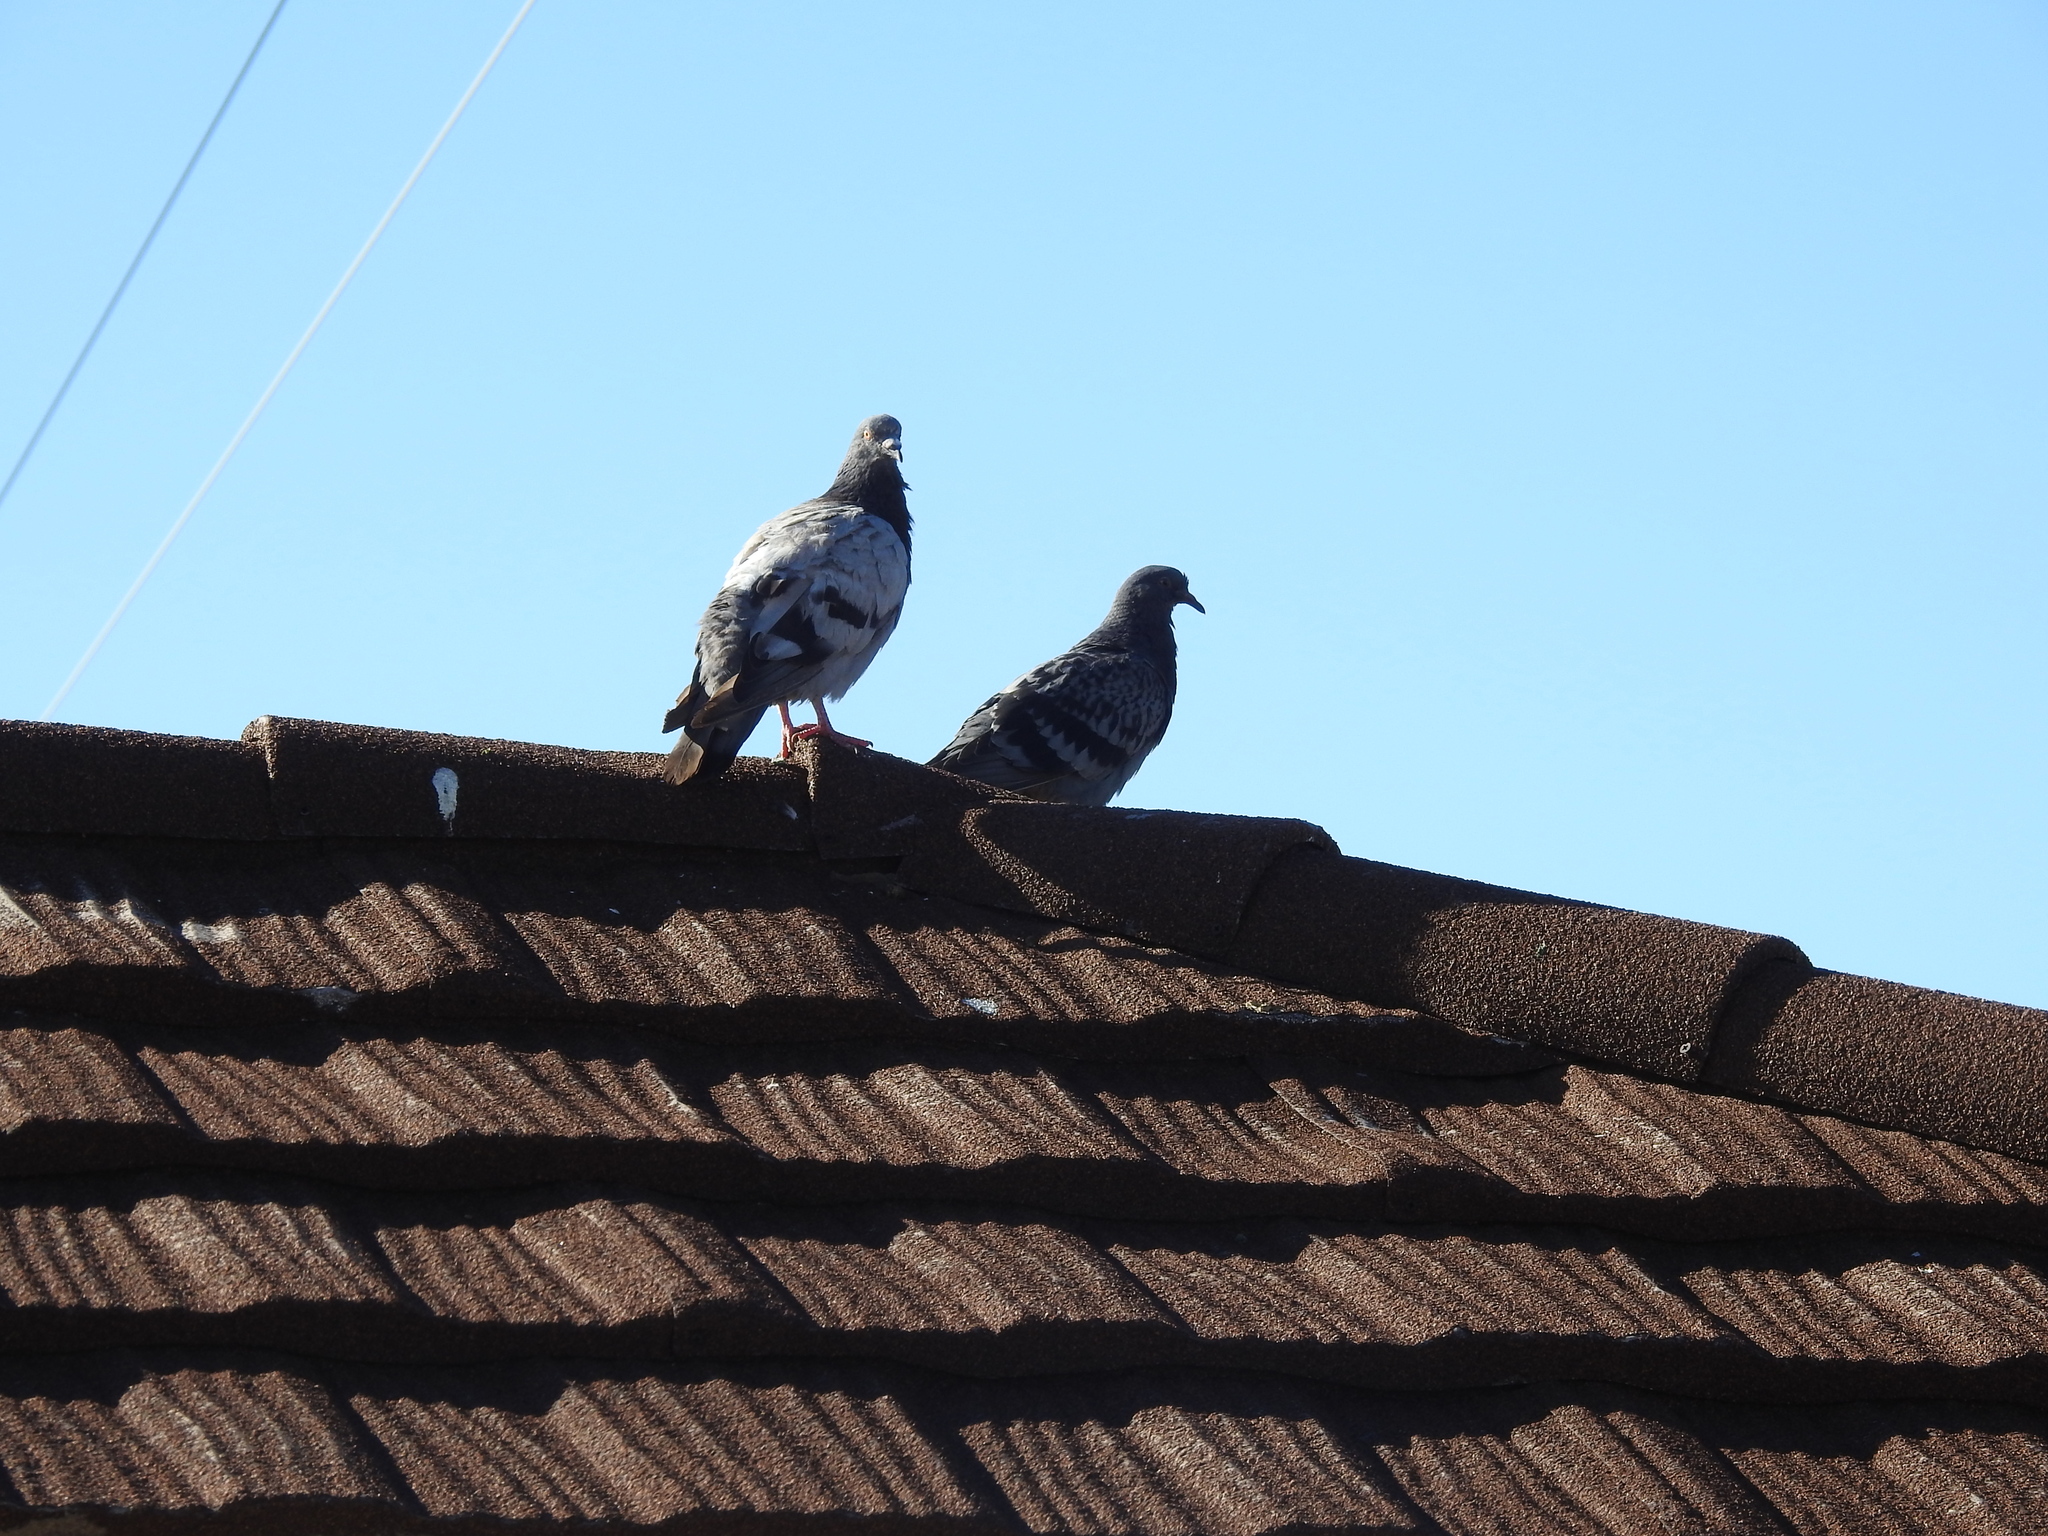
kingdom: Animalia
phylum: Chordata
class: Aves
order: Columbiformes
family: Columbidae
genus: Columba
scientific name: Columba livia
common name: Rock pigeon
